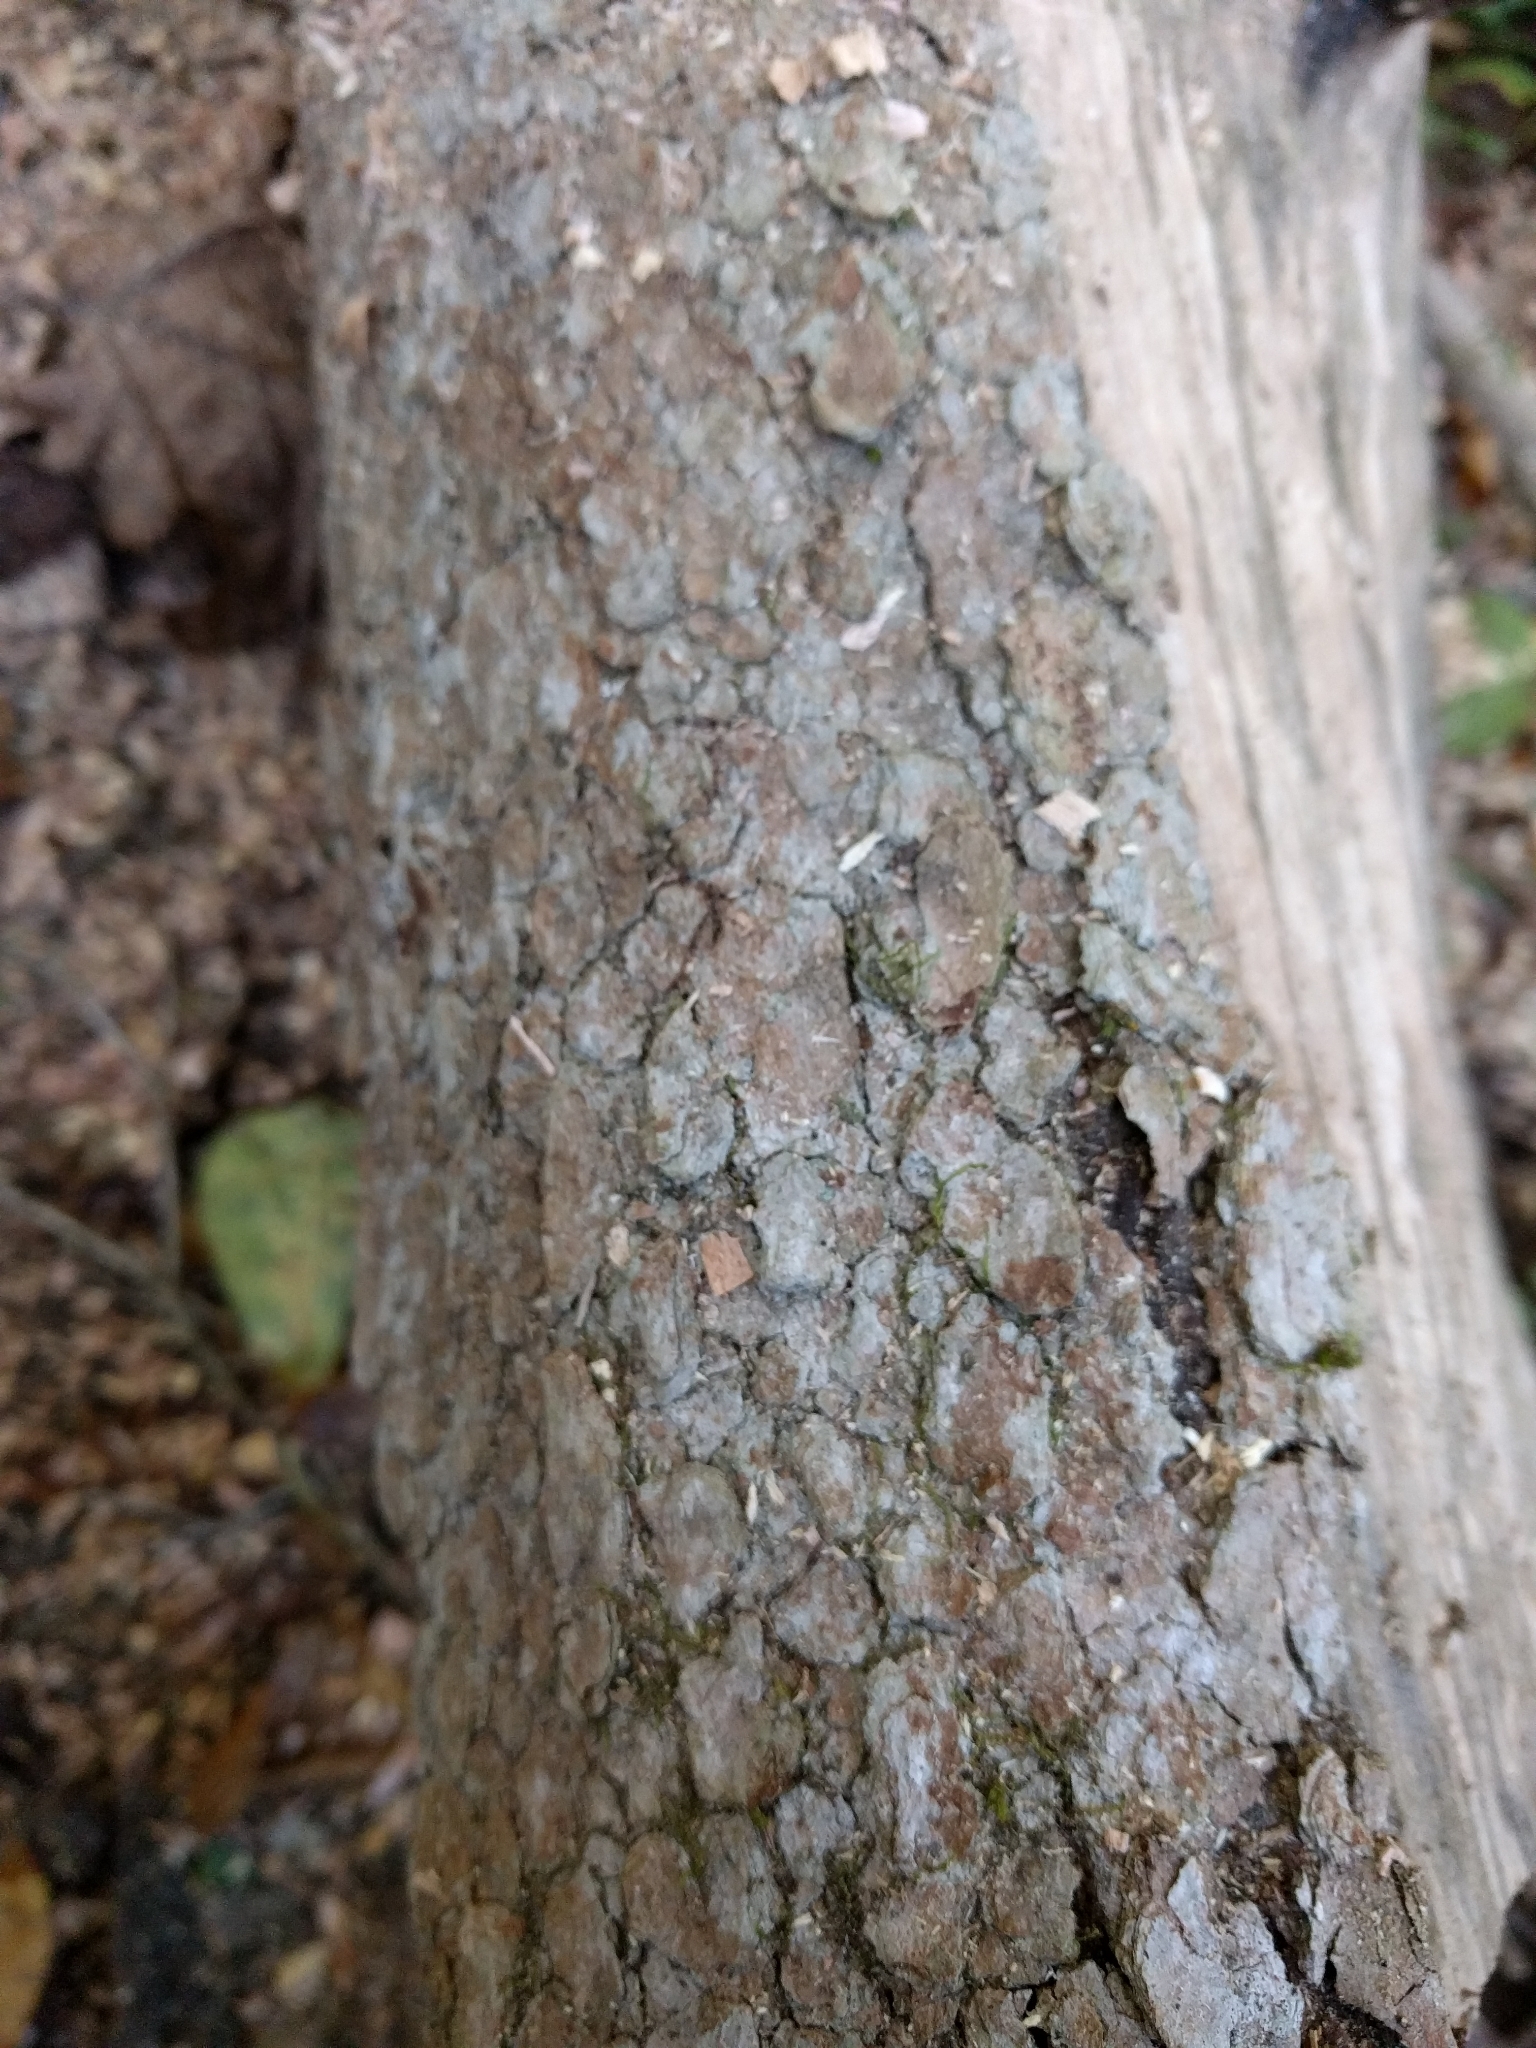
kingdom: Plantae
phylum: Tracheophyta
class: Magnoliopsida
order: Cornales
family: Cornaceae
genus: Cornus
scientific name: Cornus florida
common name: Flowering dogwood
